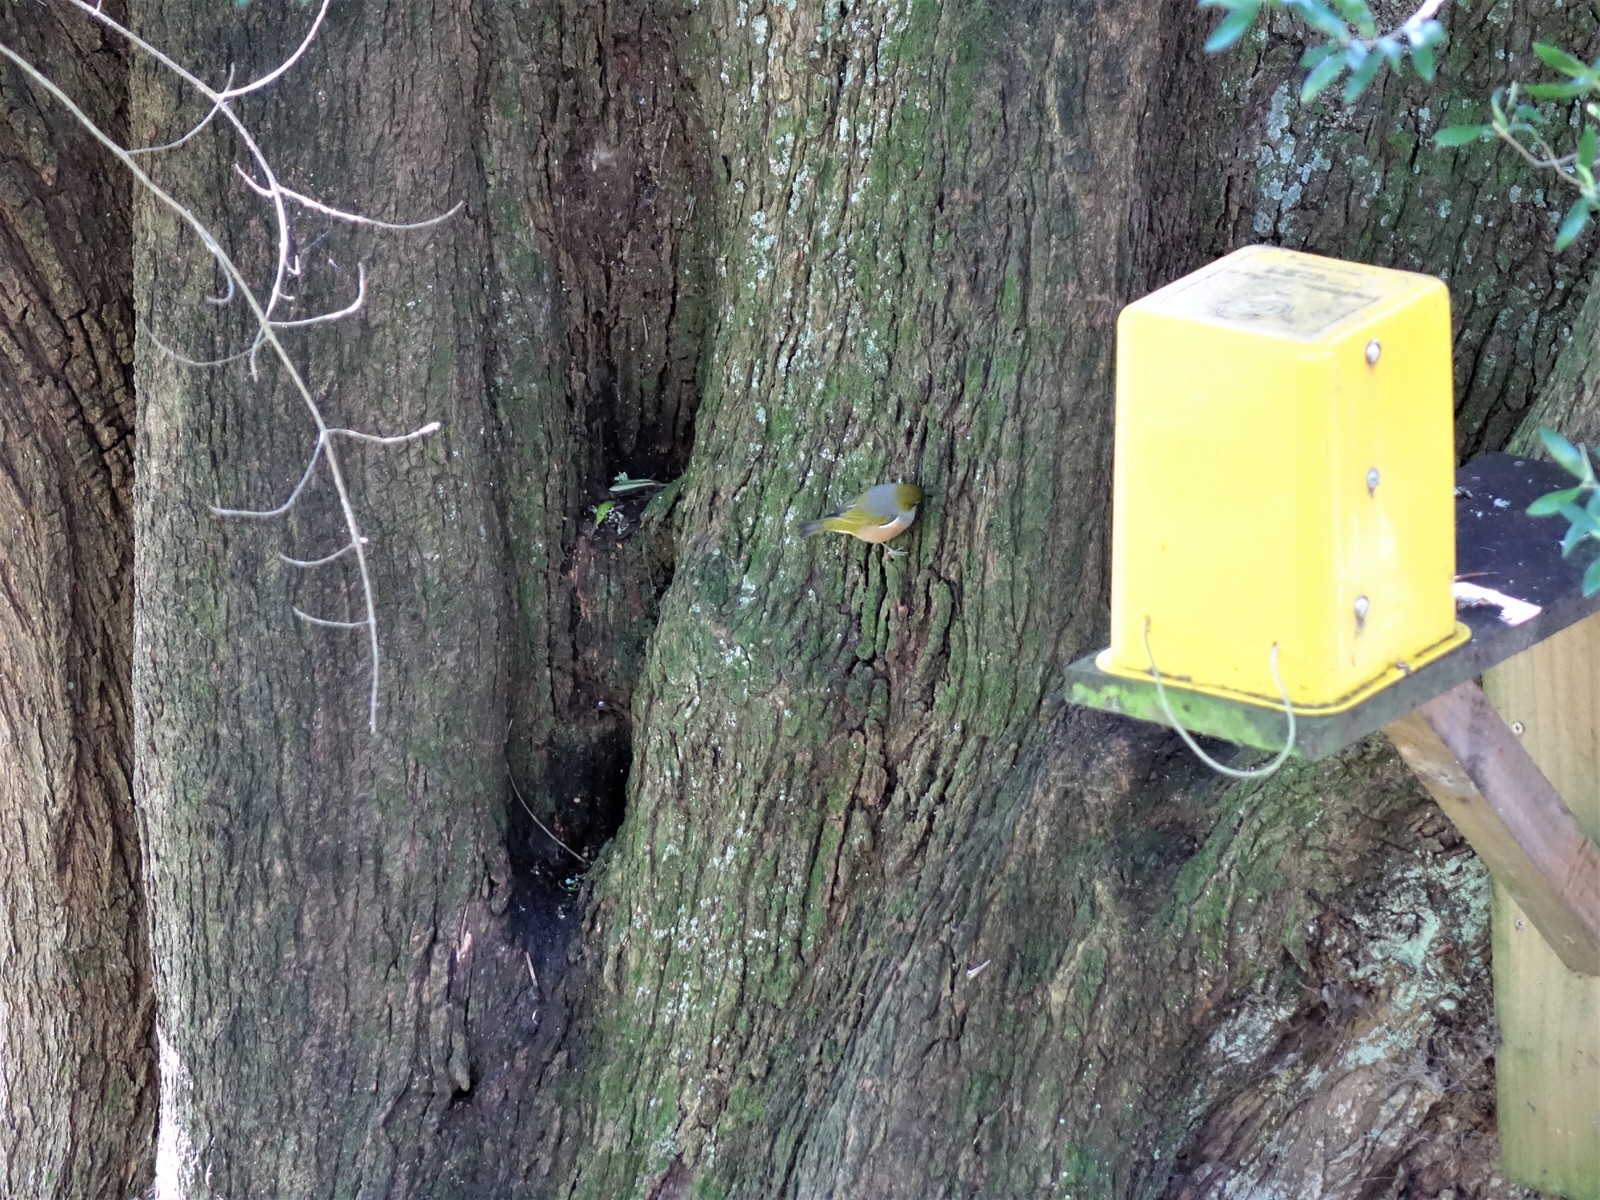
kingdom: Animalia
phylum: Chordata
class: Aves
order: Passeriformes
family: Zosteropidae
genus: Zosterops
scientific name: Zosterops lateralis
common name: Silvereye
